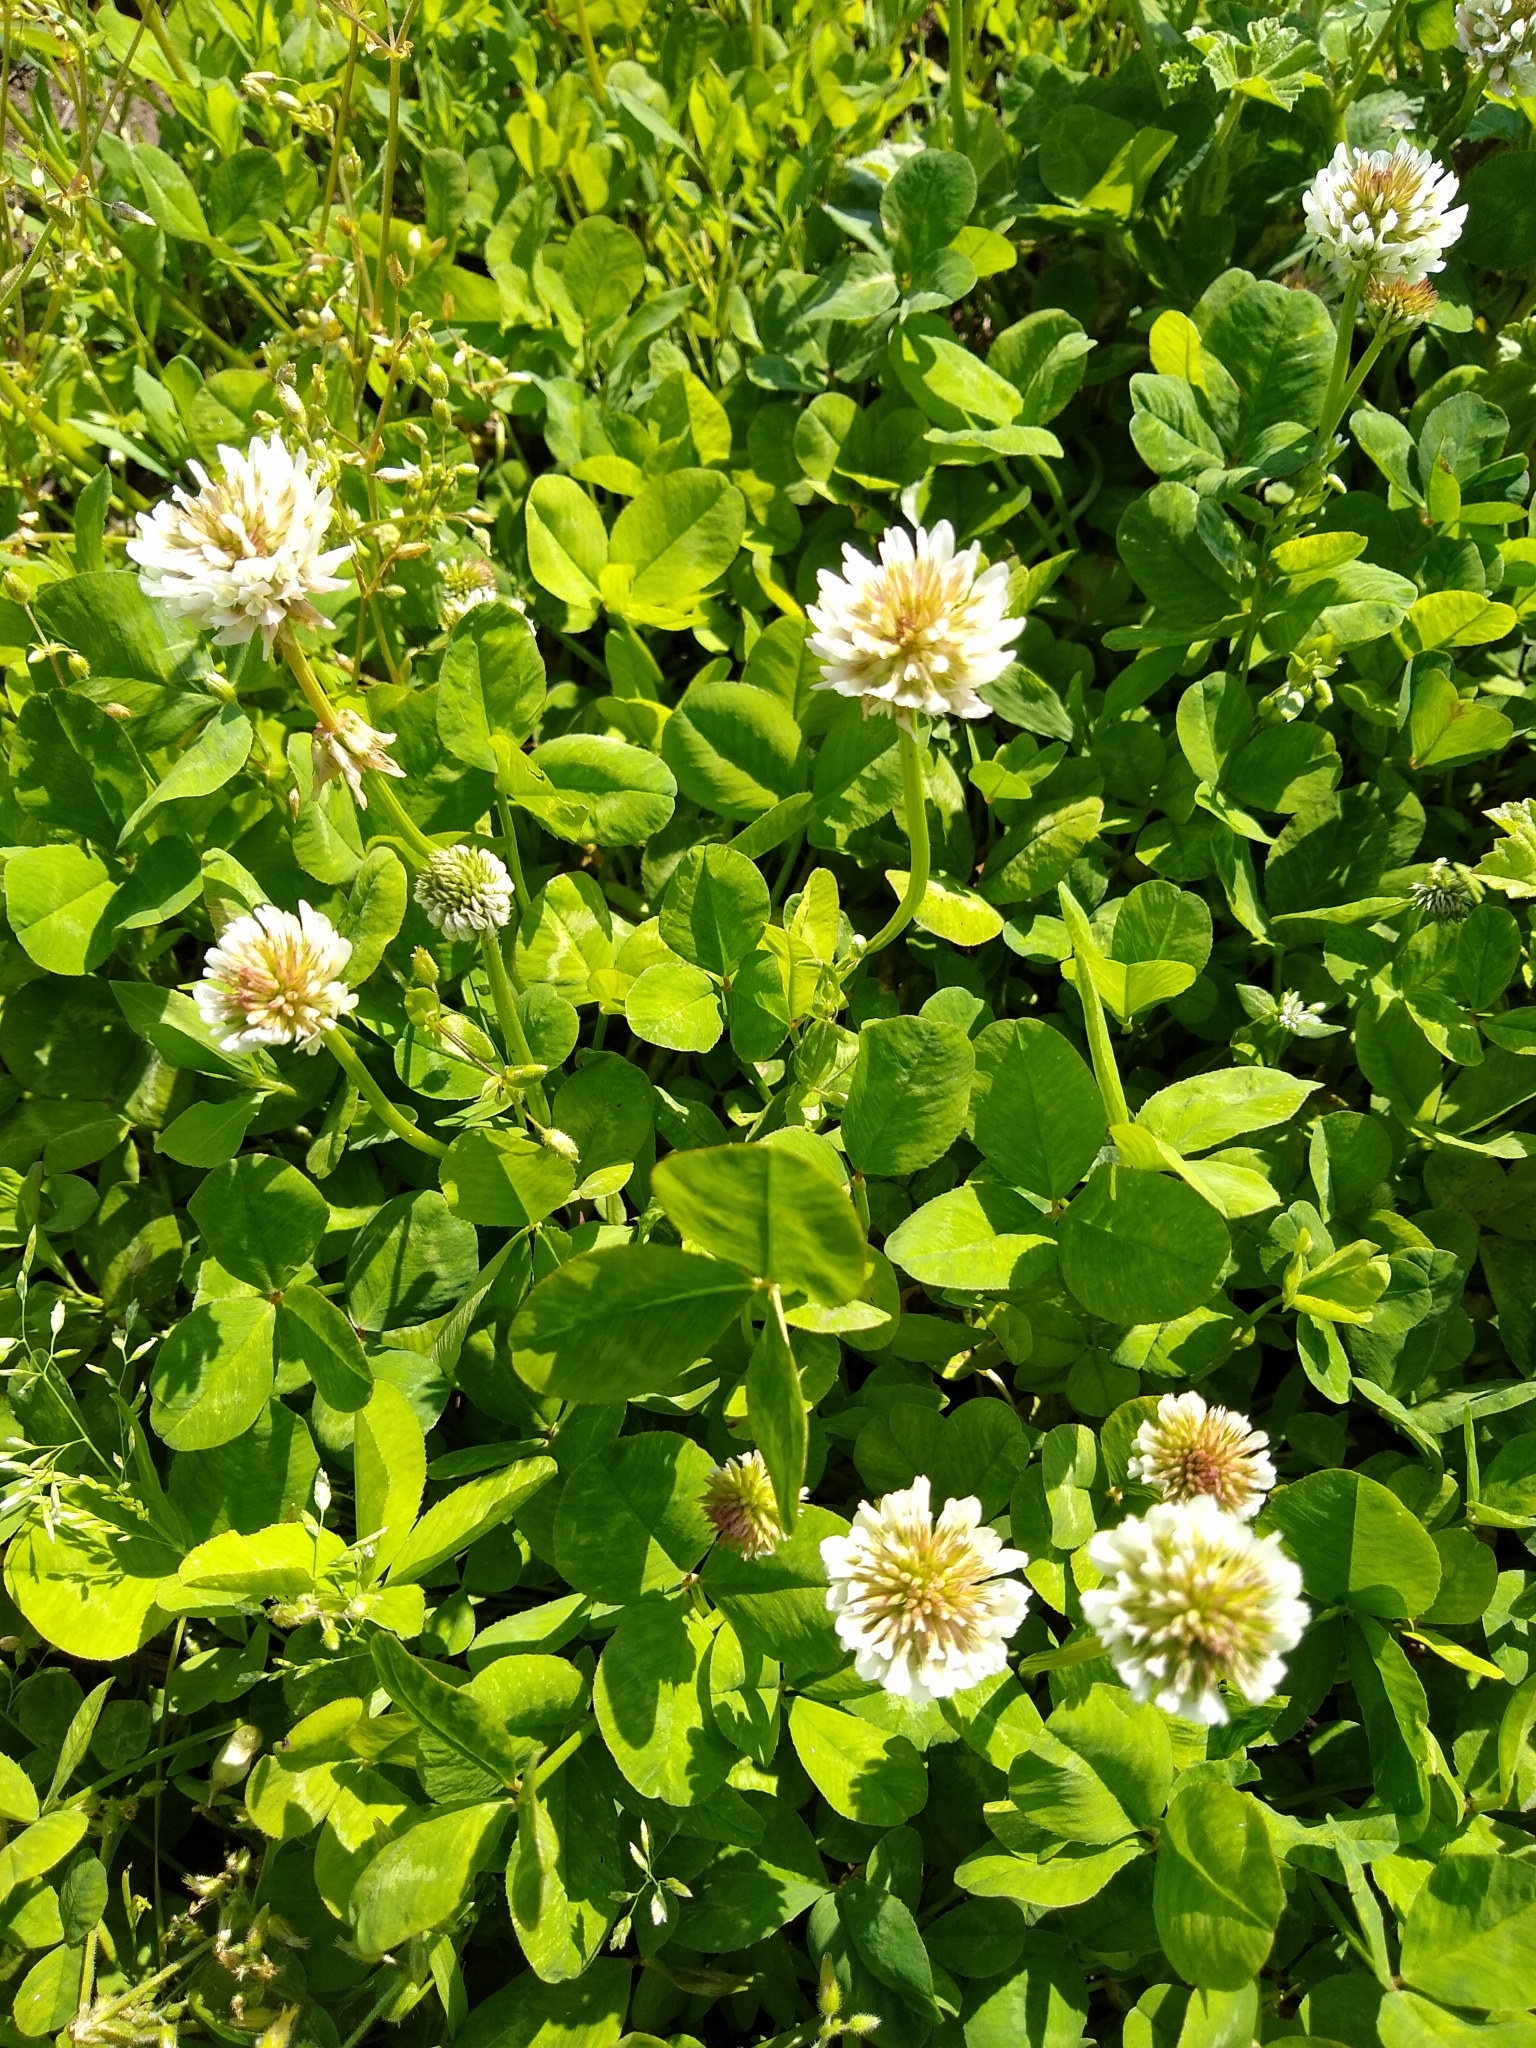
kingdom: Plantae
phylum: Tracheophyta
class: Magnoliopsida
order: Fabales
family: Fabaceae
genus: Trifolium
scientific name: Trifolium repens
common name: White clover
